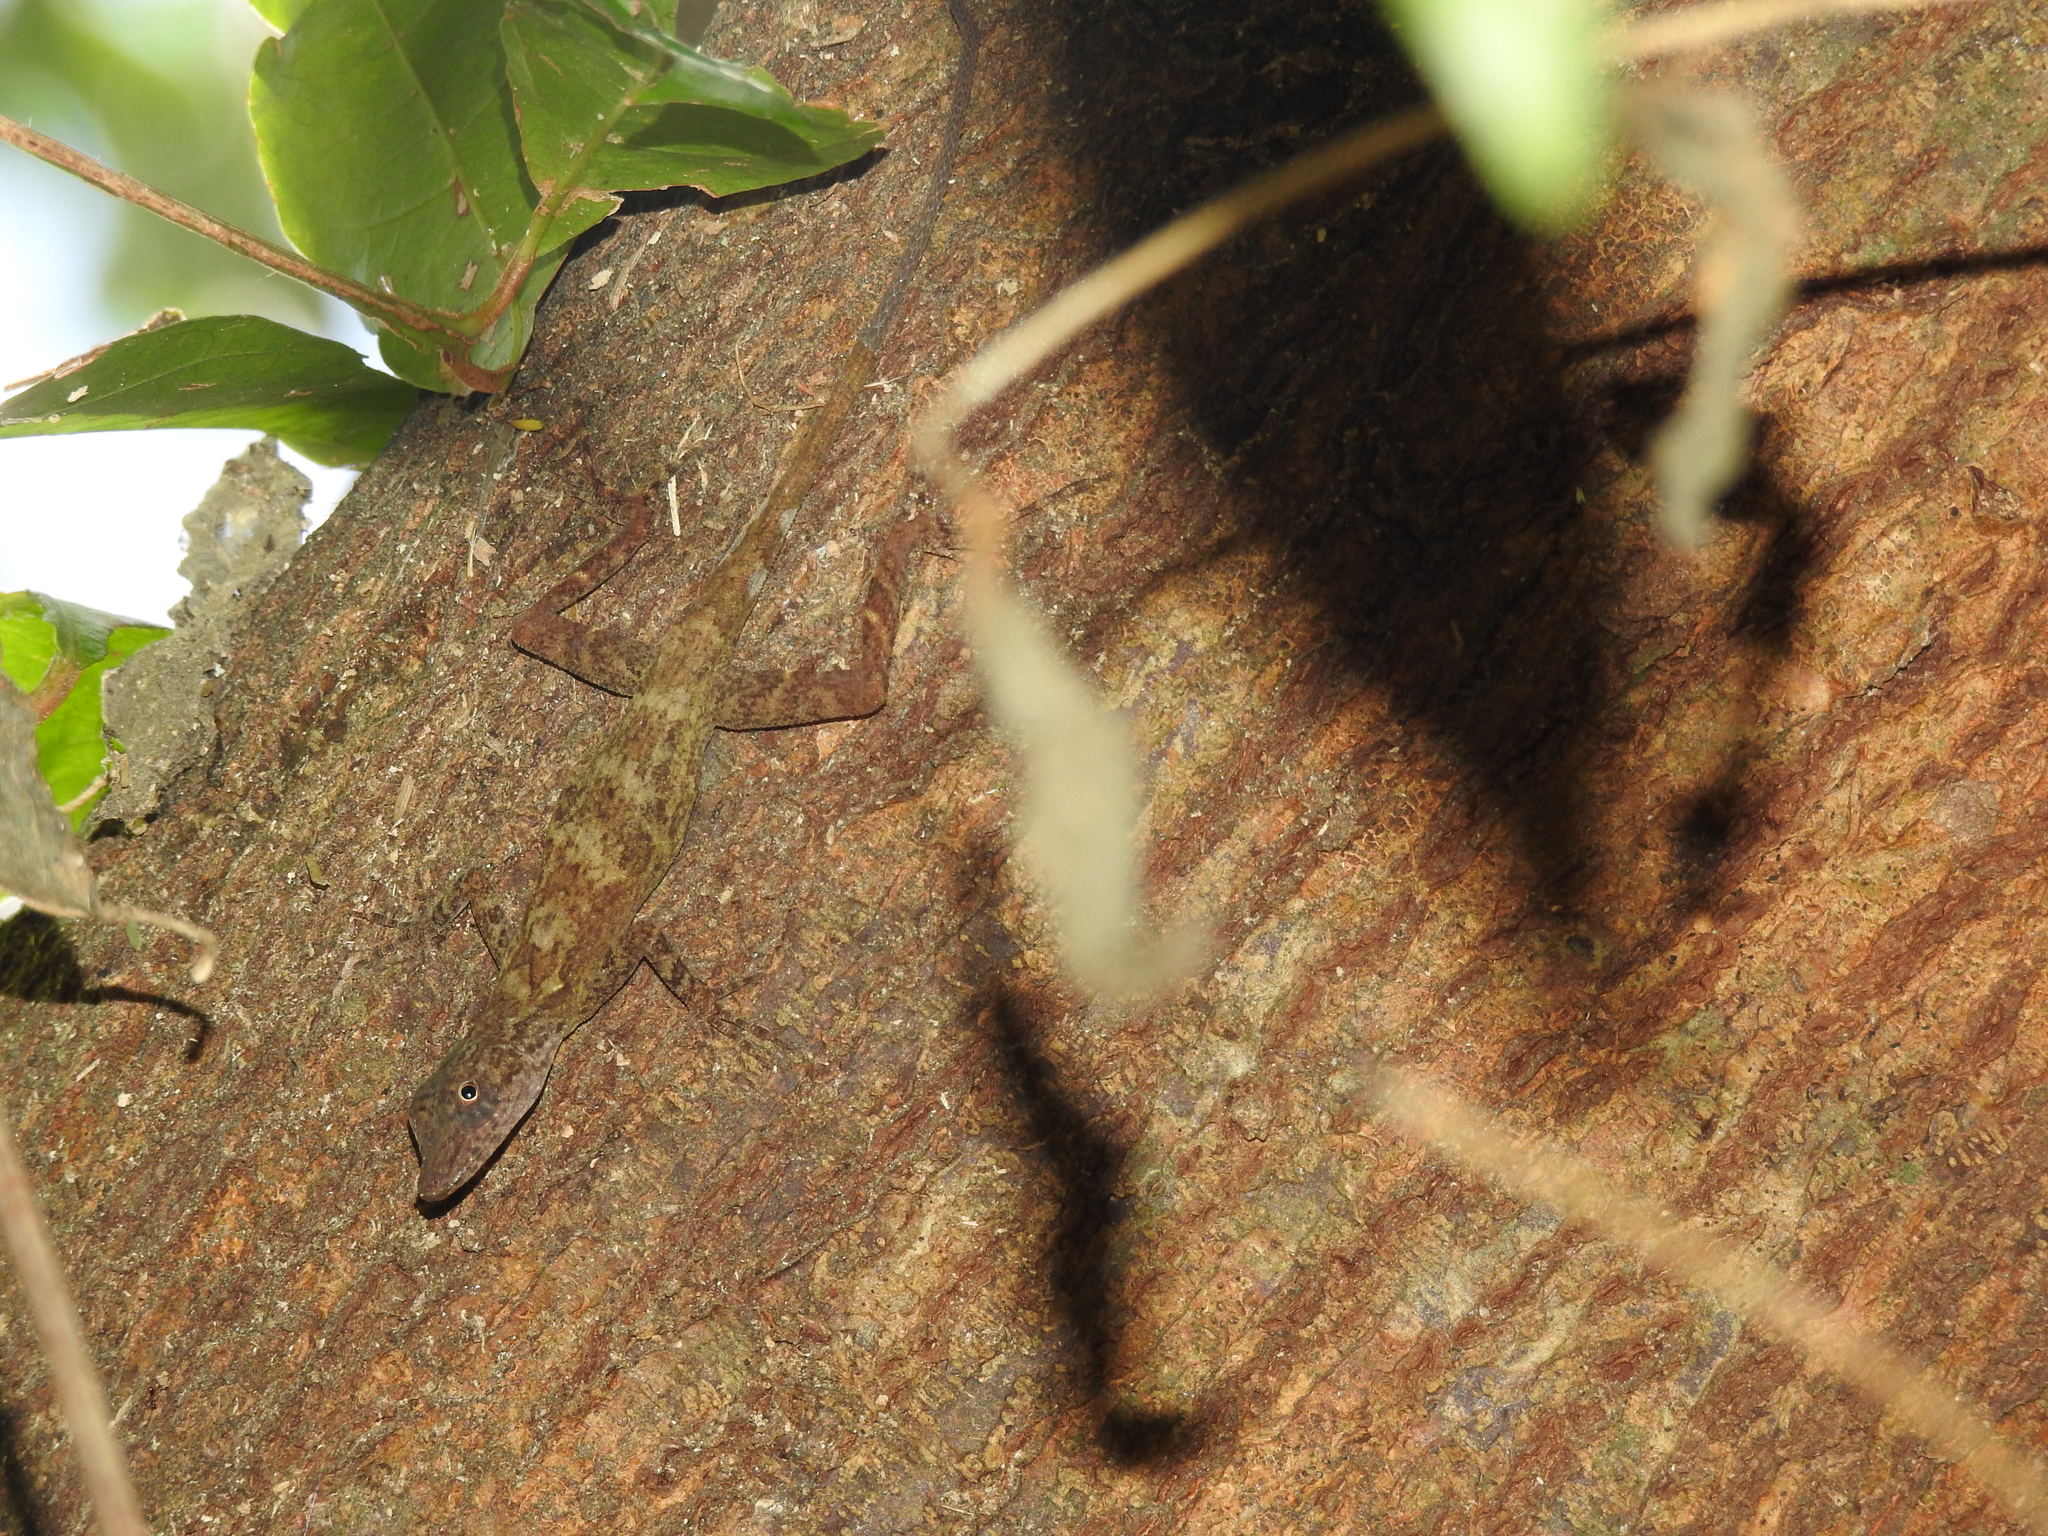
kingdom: Animalia
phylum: Chordata
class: Squamata
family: Dactyloidae
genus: Anolis
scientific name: Anolis rodriguezii
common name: Middle american smooth anole
